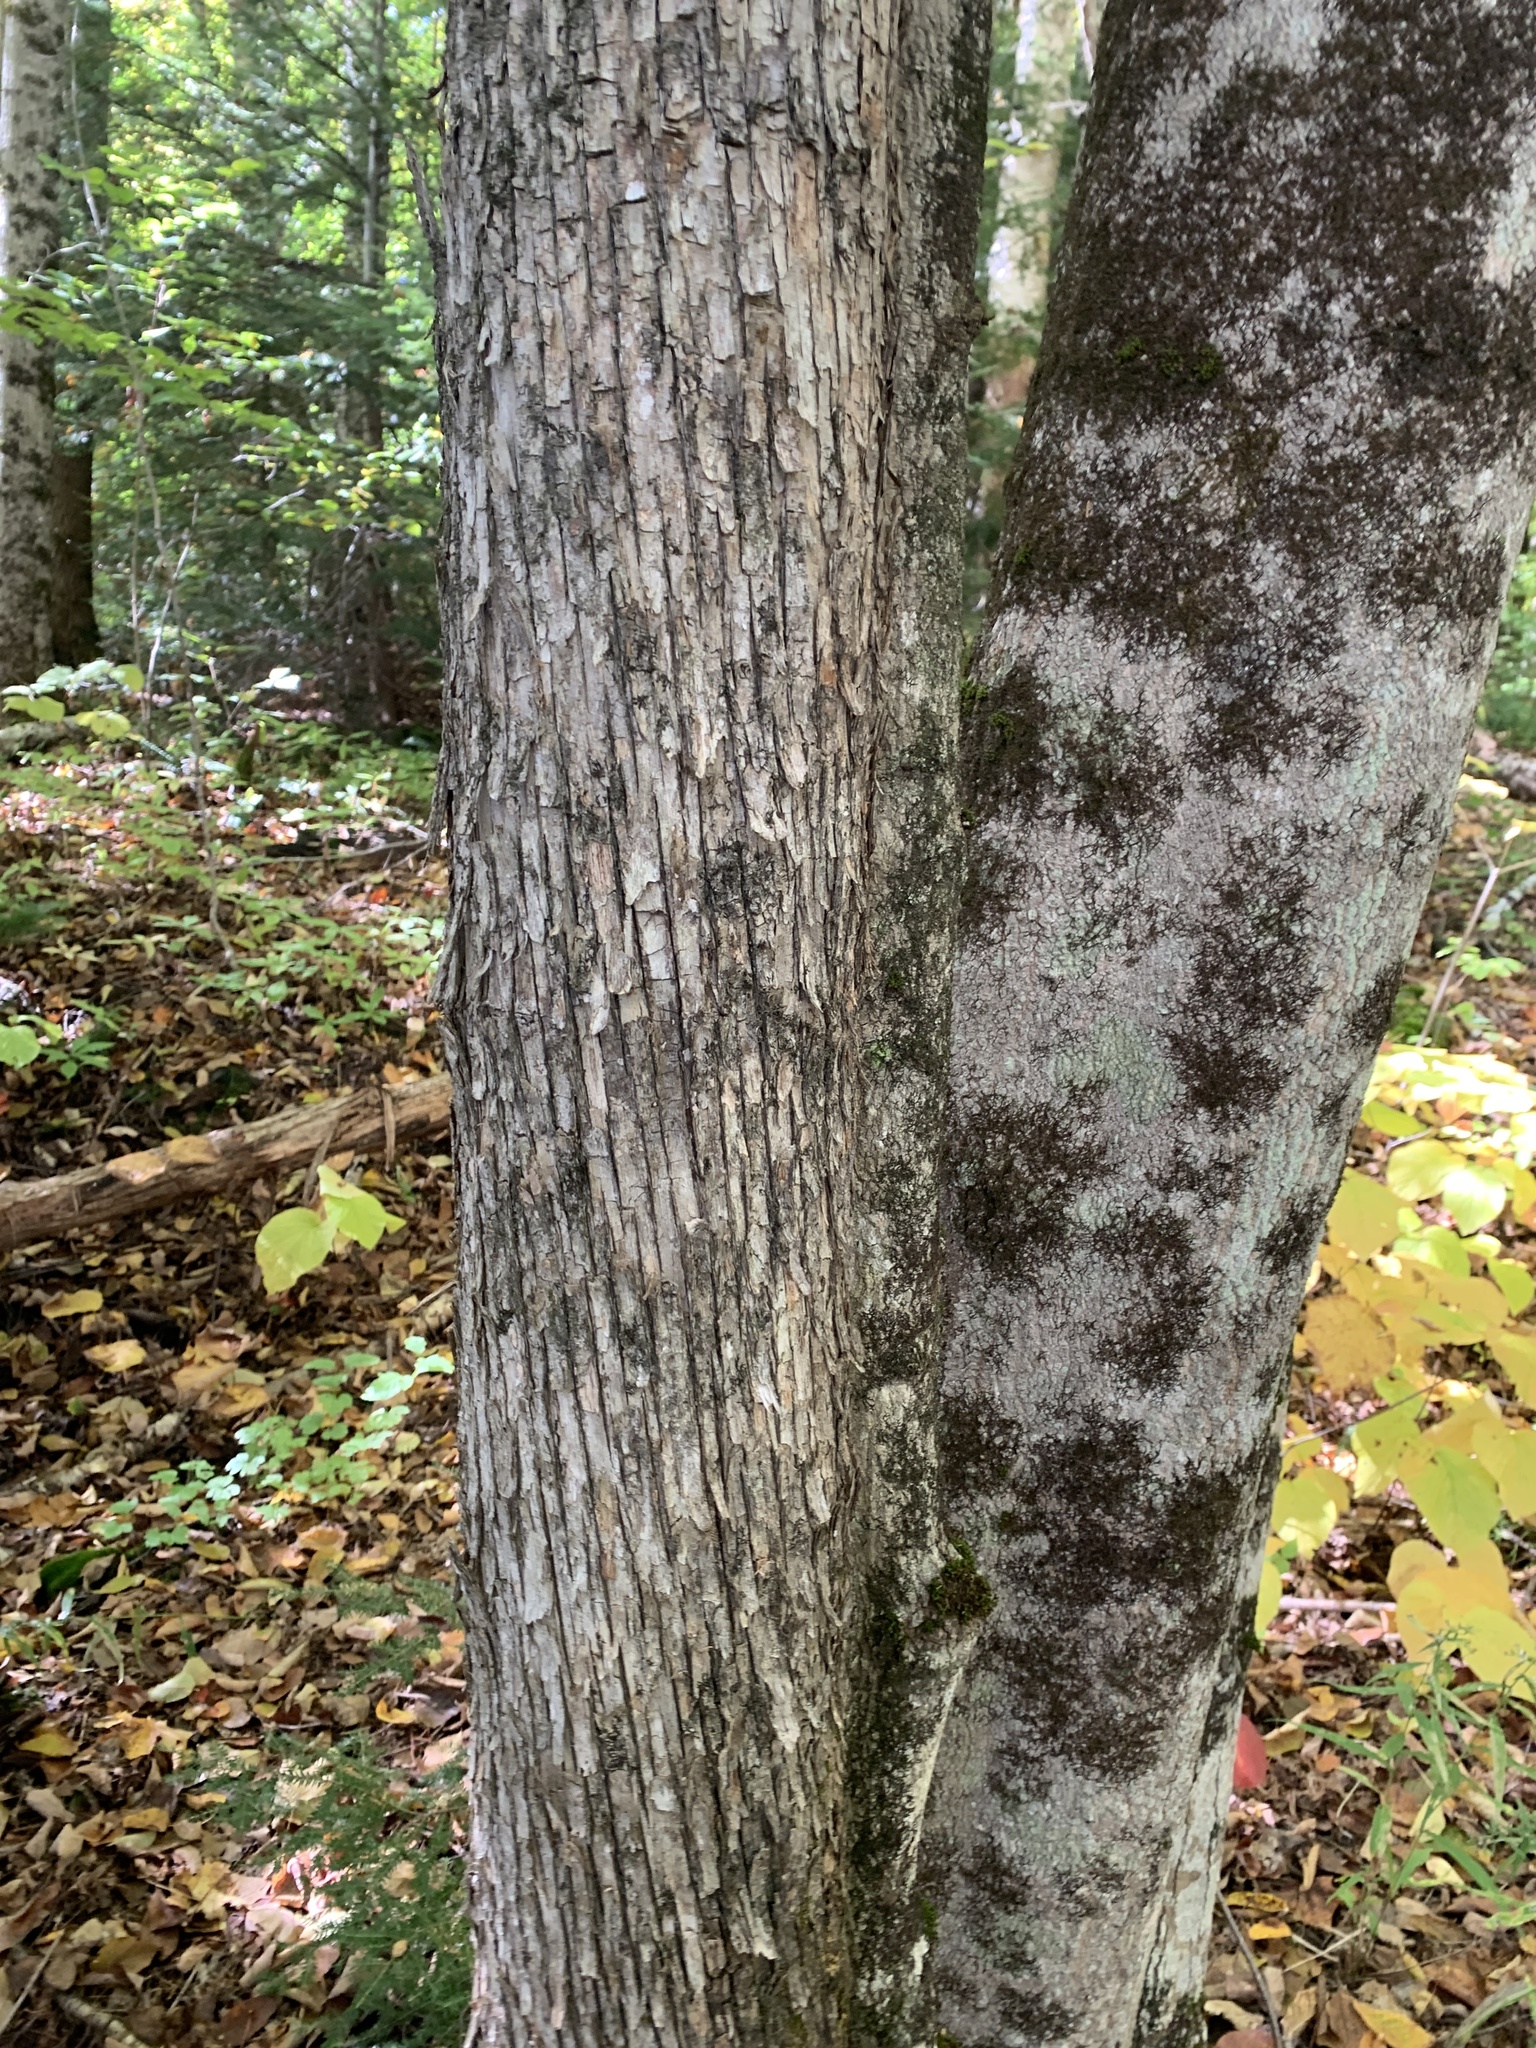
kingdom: Plantae
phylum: Tracheophyta
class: Magnoliopsida
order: Fagales
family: Betulaceae
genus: Ostrya
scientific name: Ostrya virginiana
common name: Ironwood
